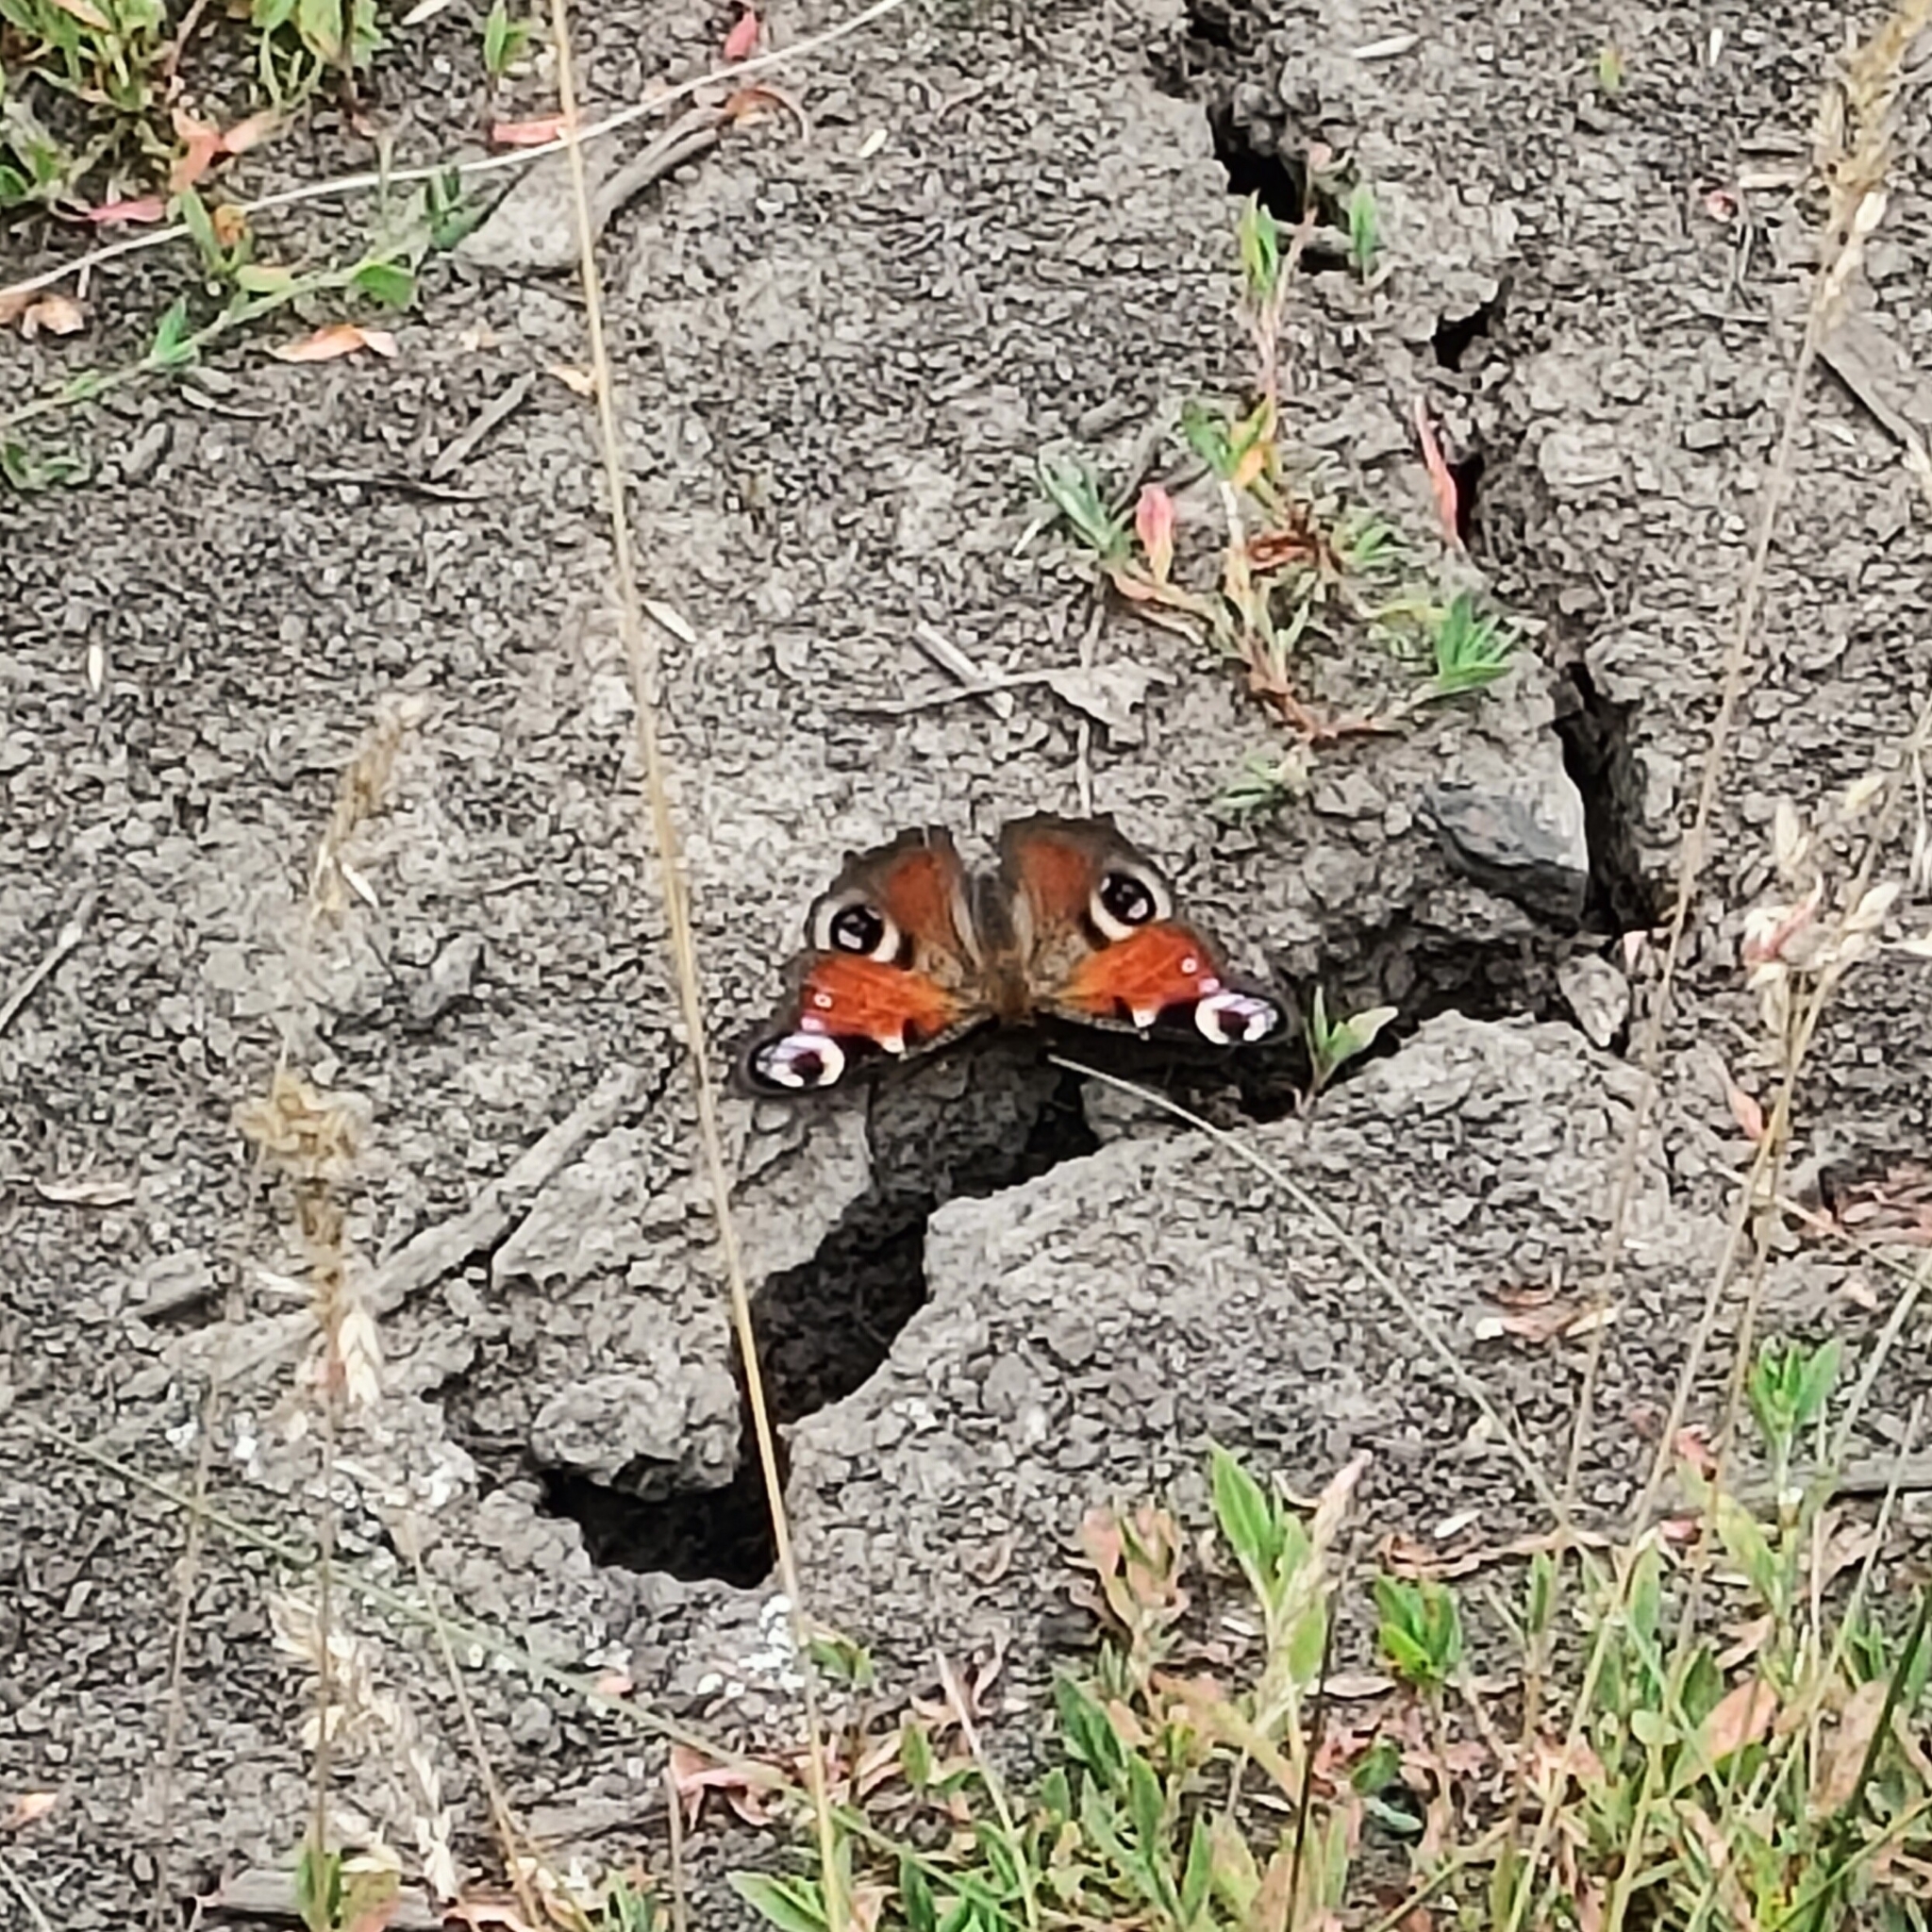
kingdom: Animalia
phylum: Arthropoda
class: Insecta
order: Lepidoptera
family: Nymphalidae
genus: Aglais
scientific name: Aglais io
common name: Peacock
